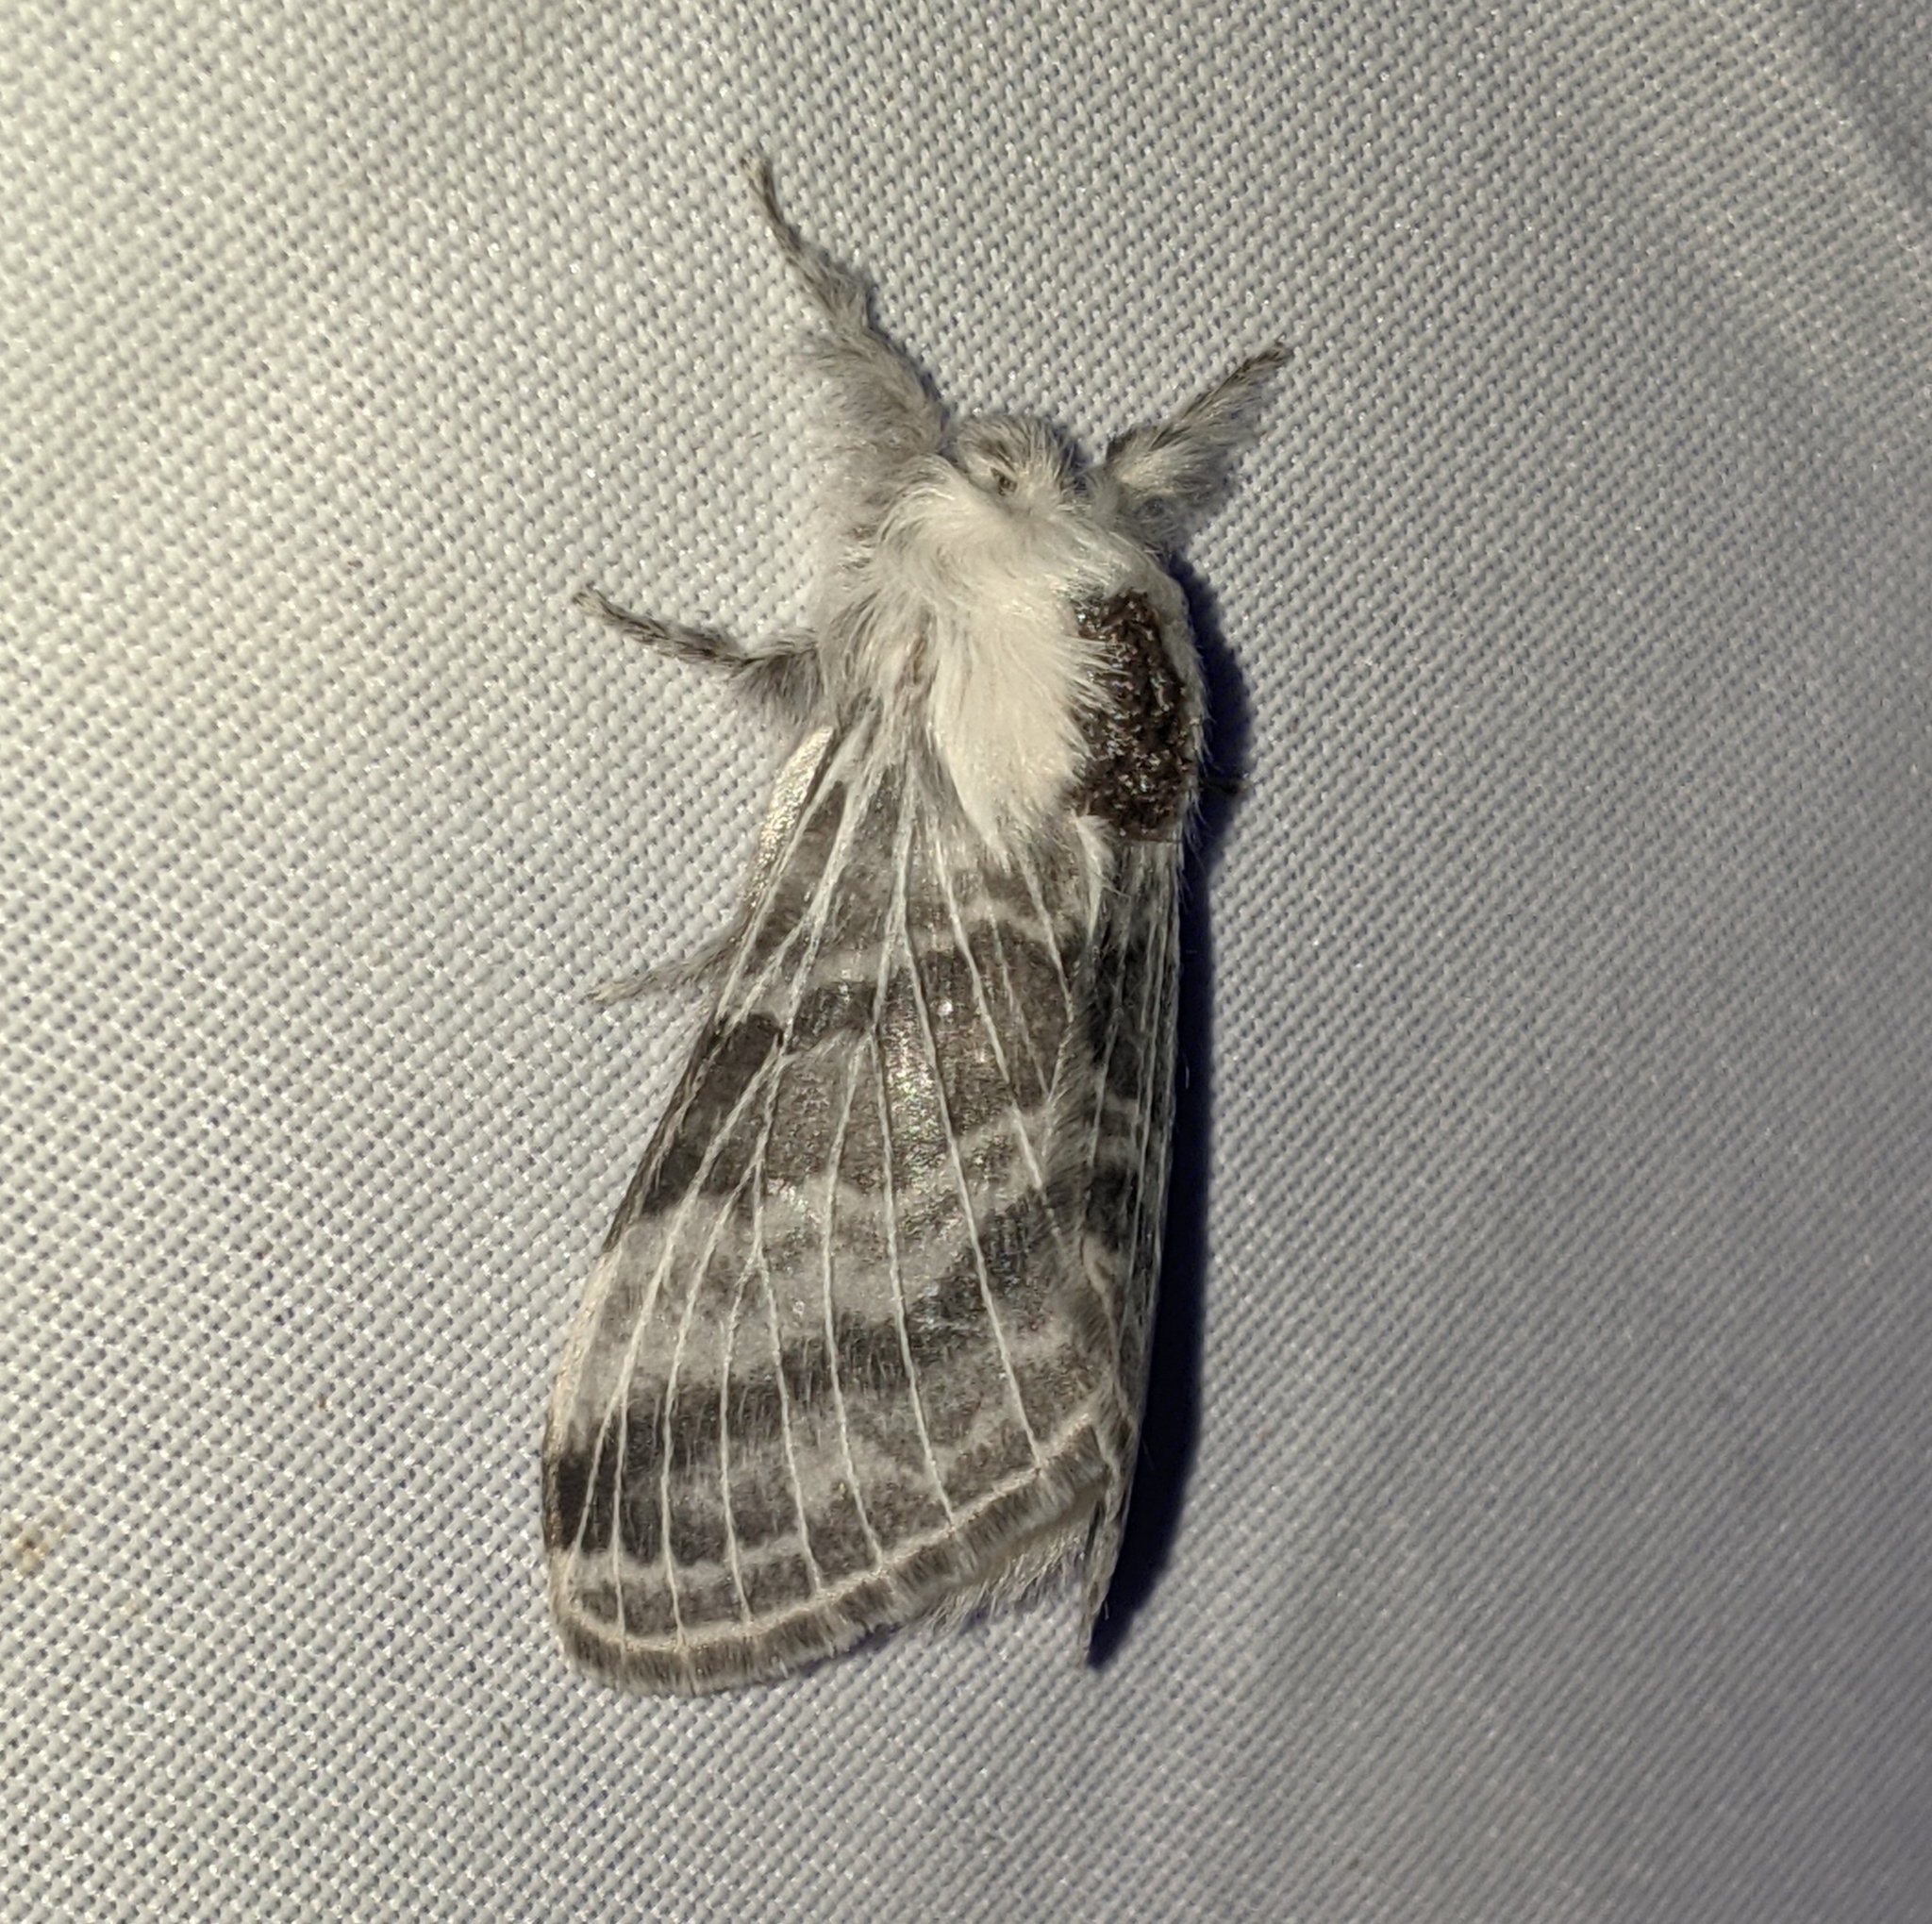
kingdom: Animalia
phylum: Arthropoda
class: Insecta
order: Lepidoptera
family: Lasiocampidae
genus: Tolype
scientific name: Tolype dayi
